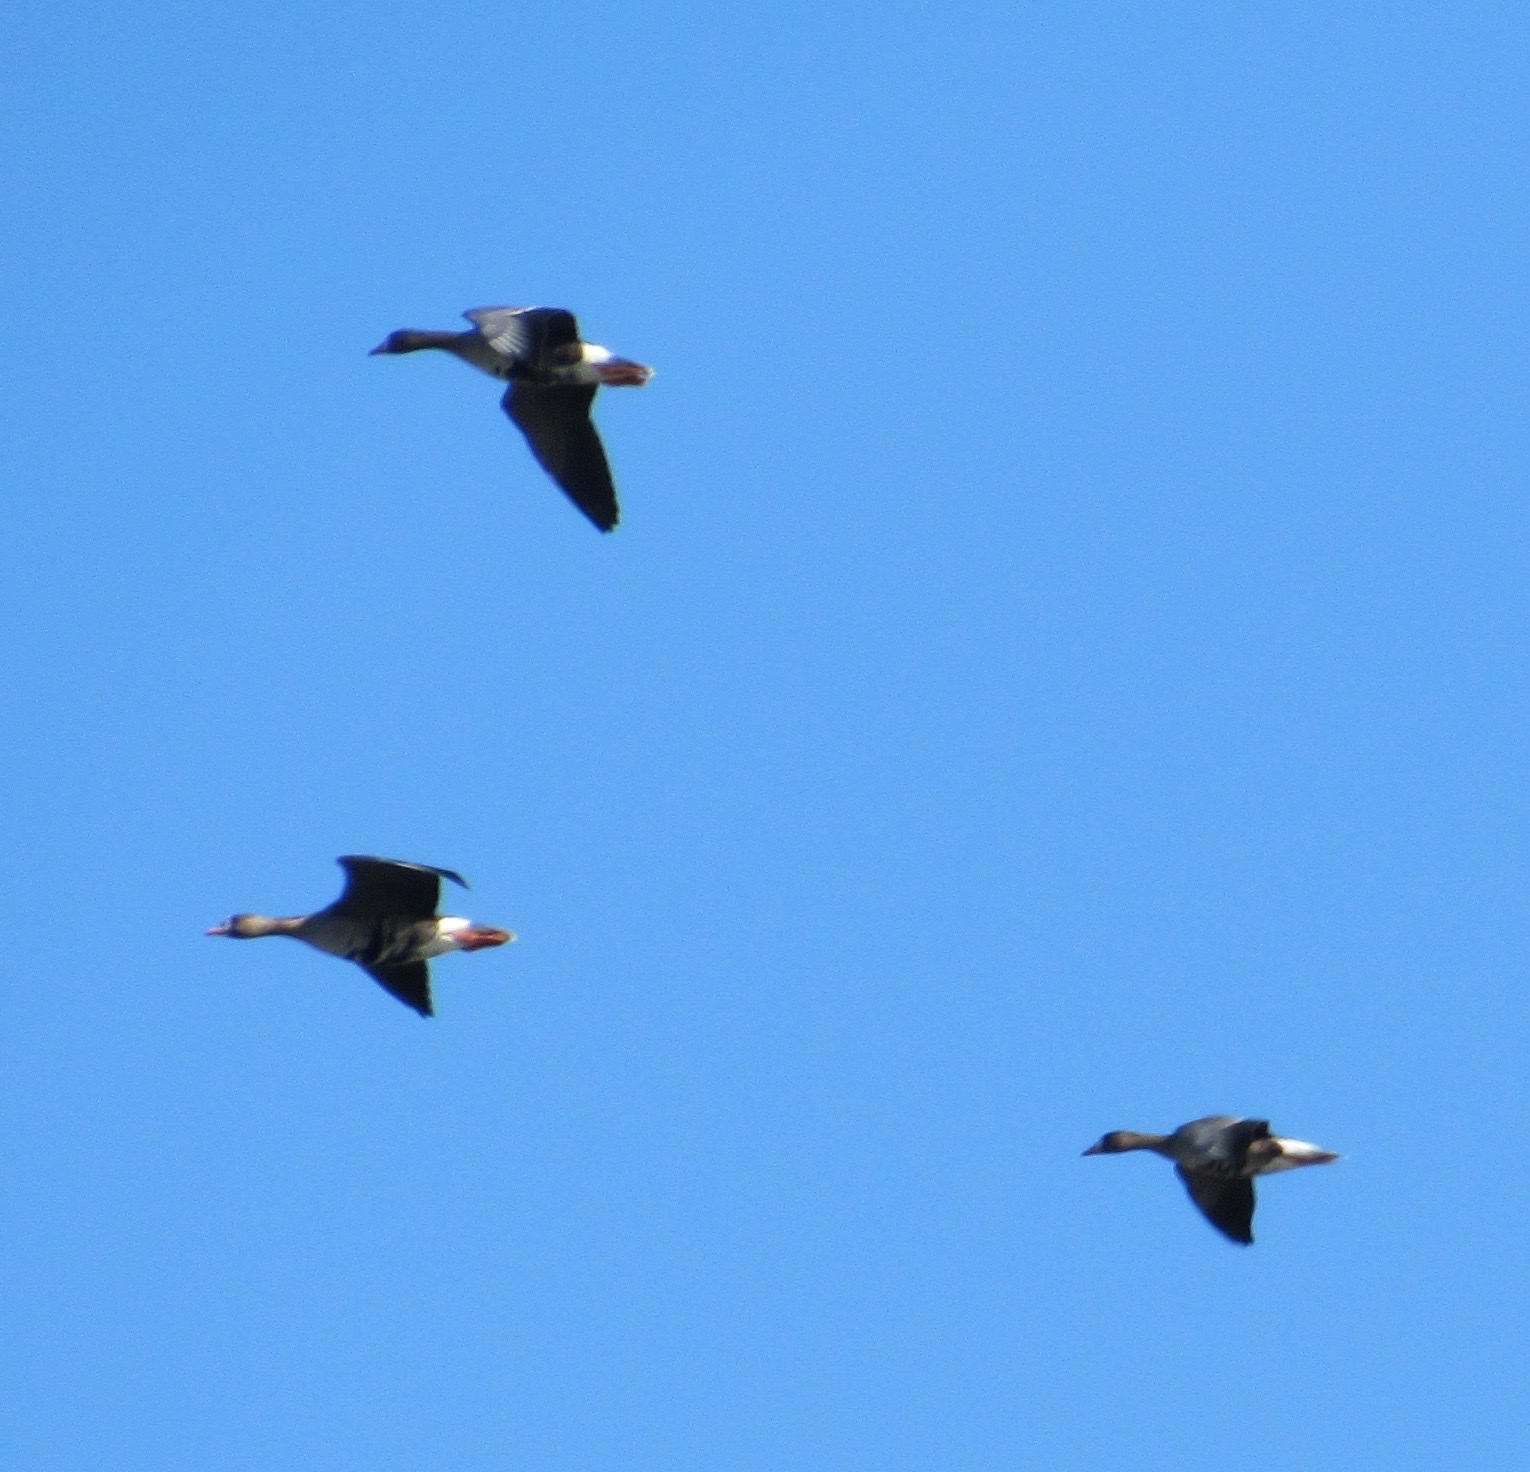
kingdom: Animalia
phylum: Chordata
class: Aves
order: Anseriformes
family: Anatidae
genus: Anser
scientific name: Anser albifrons
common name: Greater white-fronted goose
